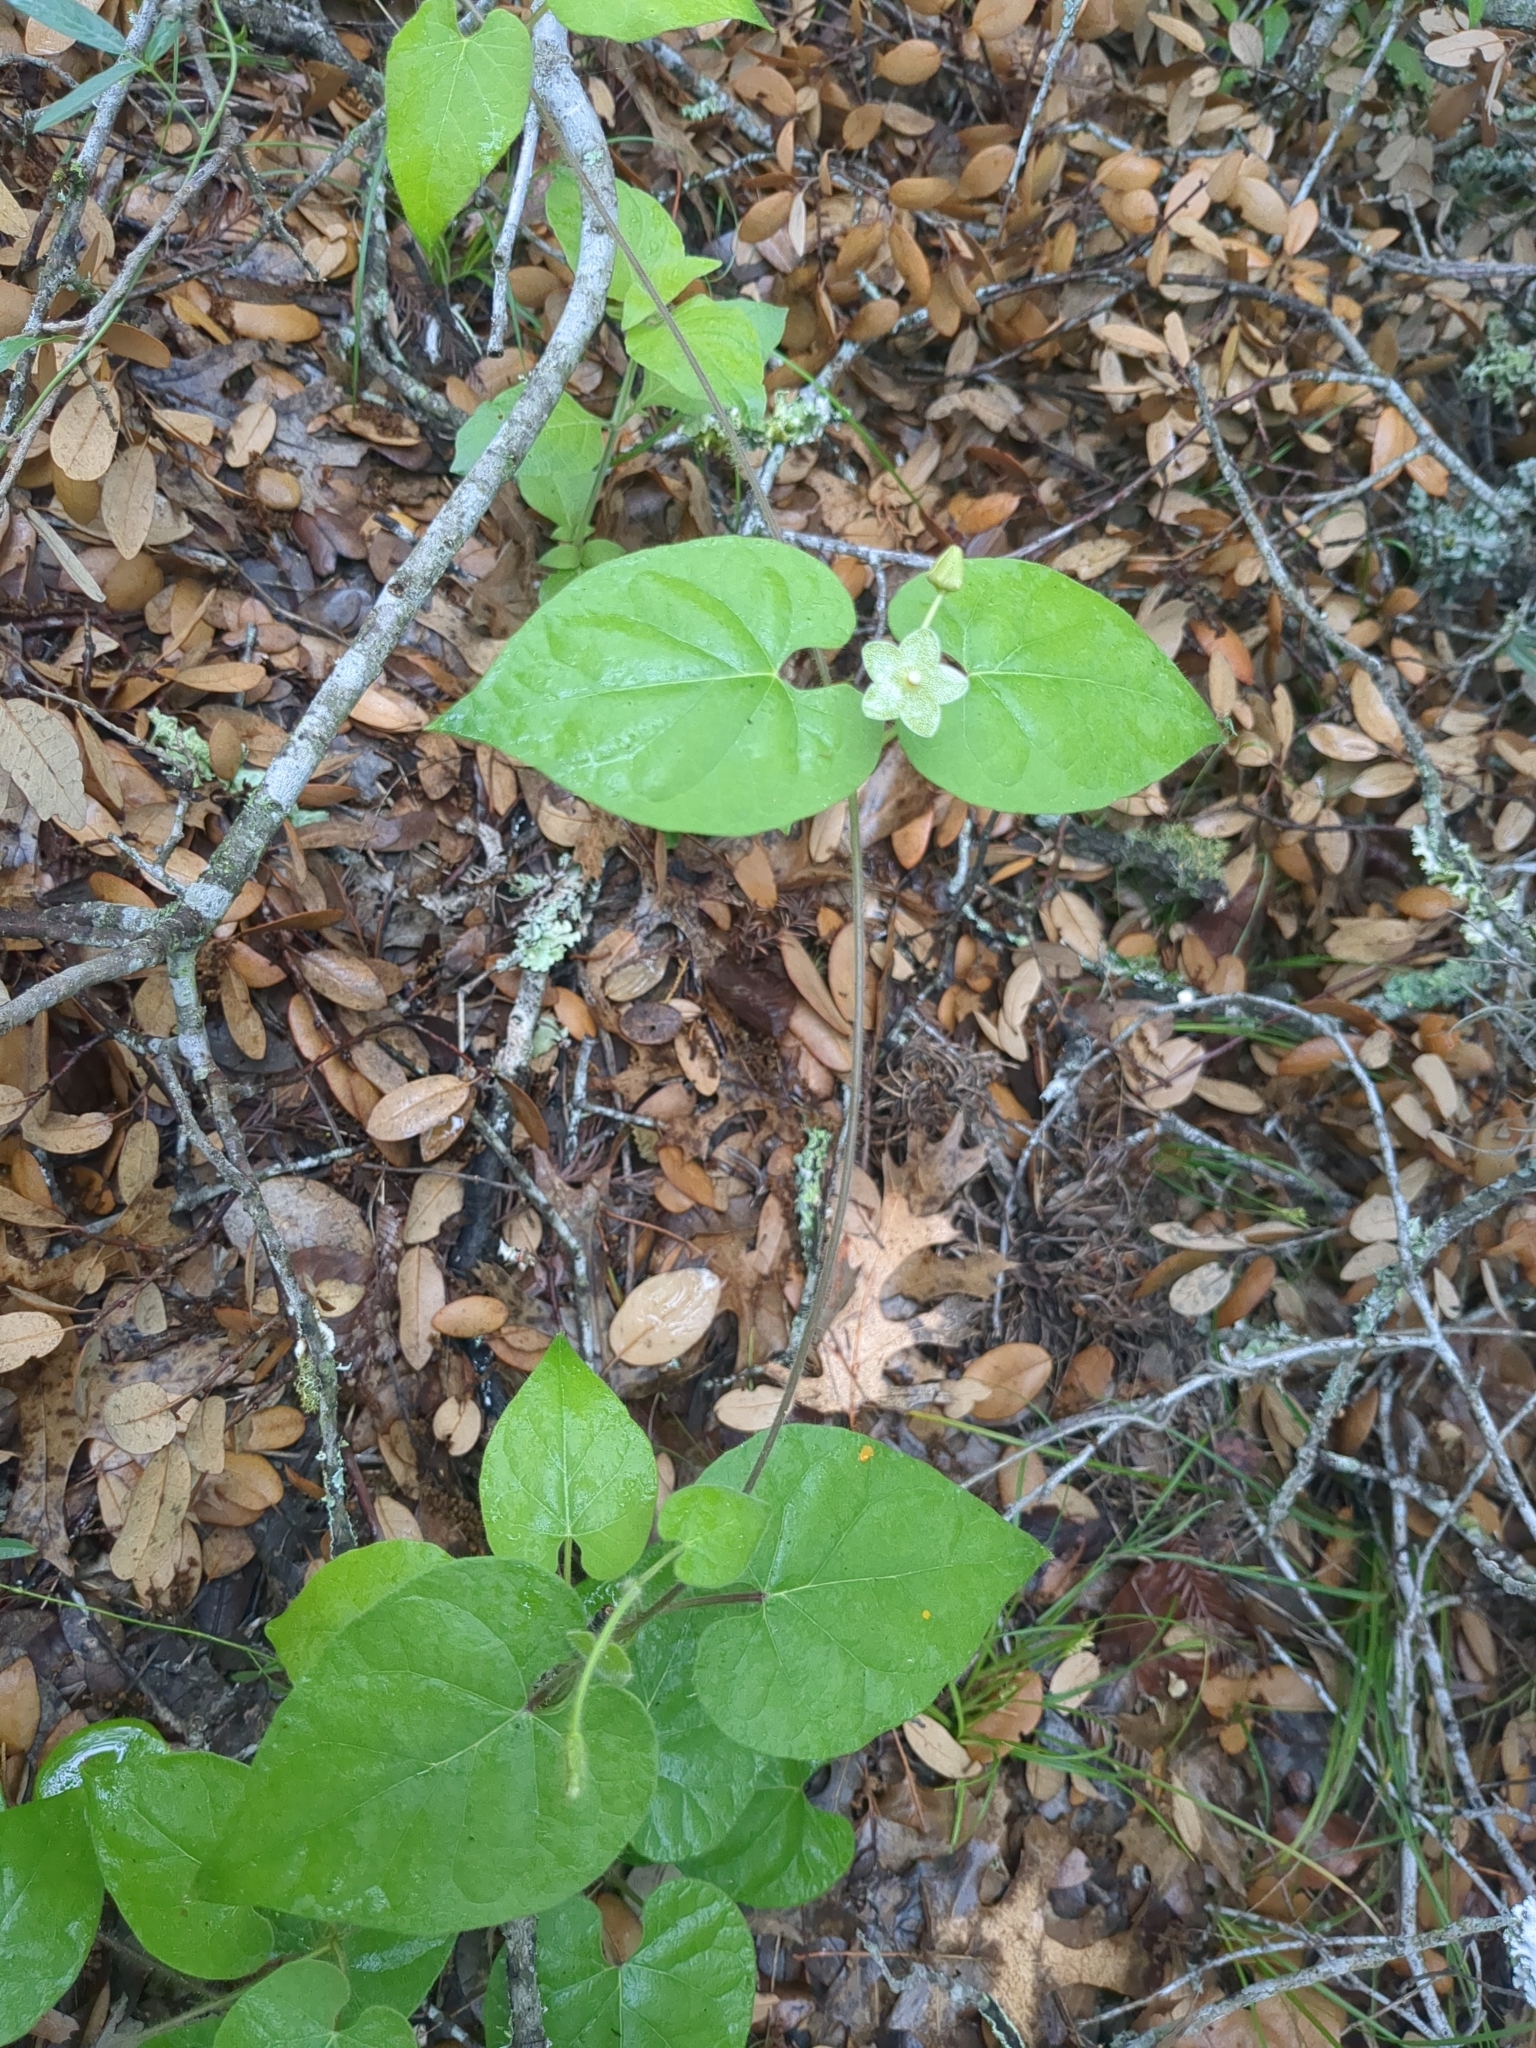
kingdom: Plantae
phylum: Tracheophyta
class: Magnoliopsida
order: Gentianales
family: Apocynaceae
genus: Dictyanthus
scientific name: Dictyanthus reticulatus
